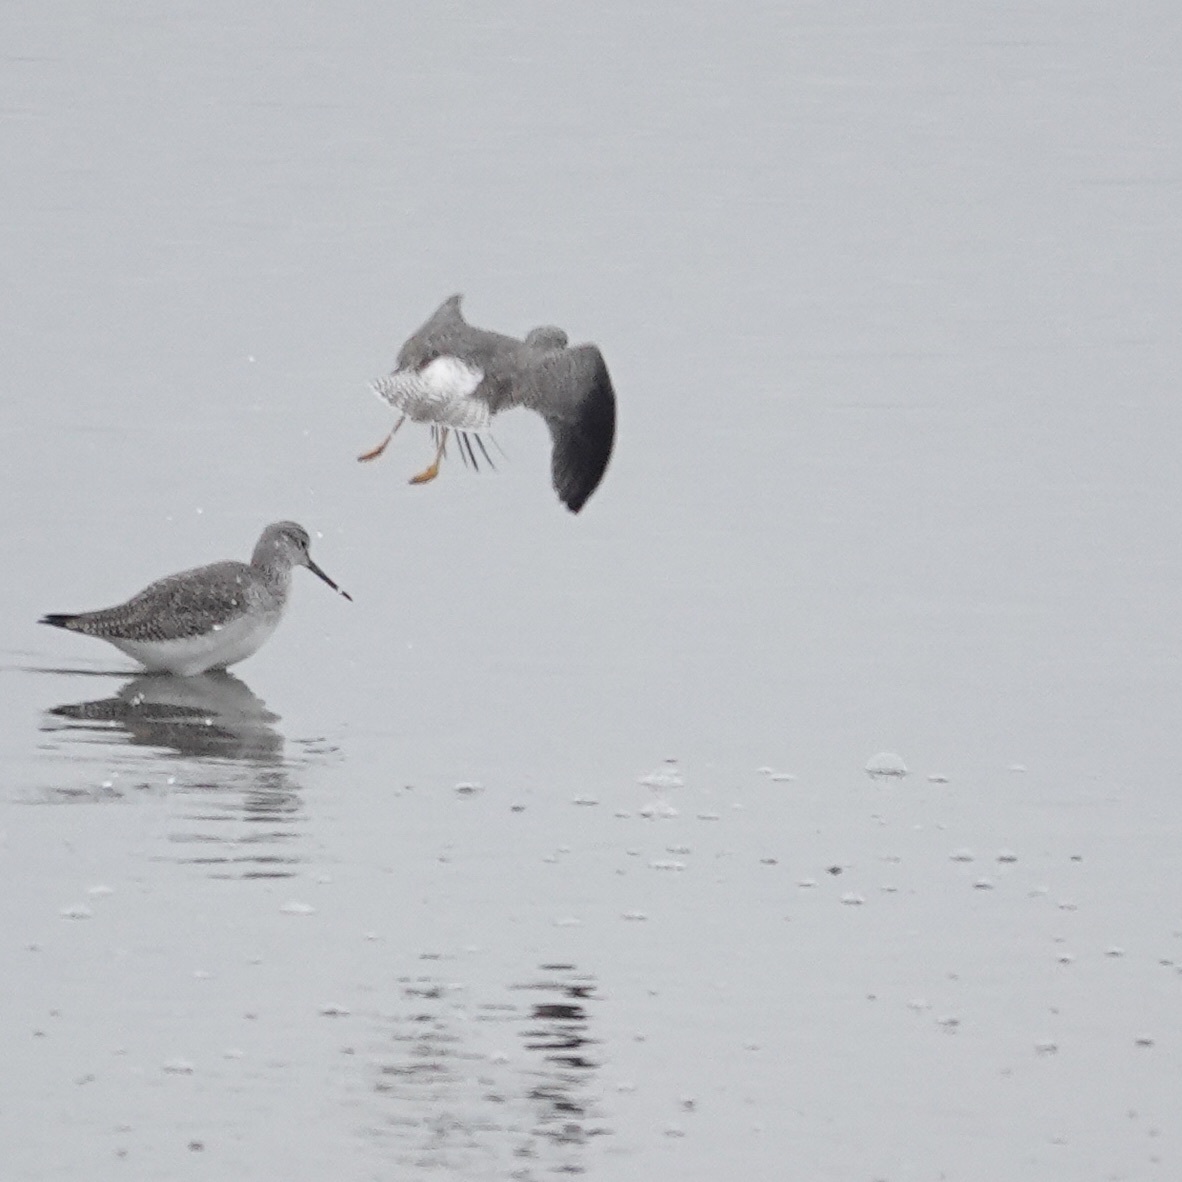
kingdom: Animalia
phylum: Chordata
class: Aves
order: Charadriiformes
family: Scolopacidae
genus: Tringa
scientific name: Tringa melanoleuca
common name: Greater yellowlegs
